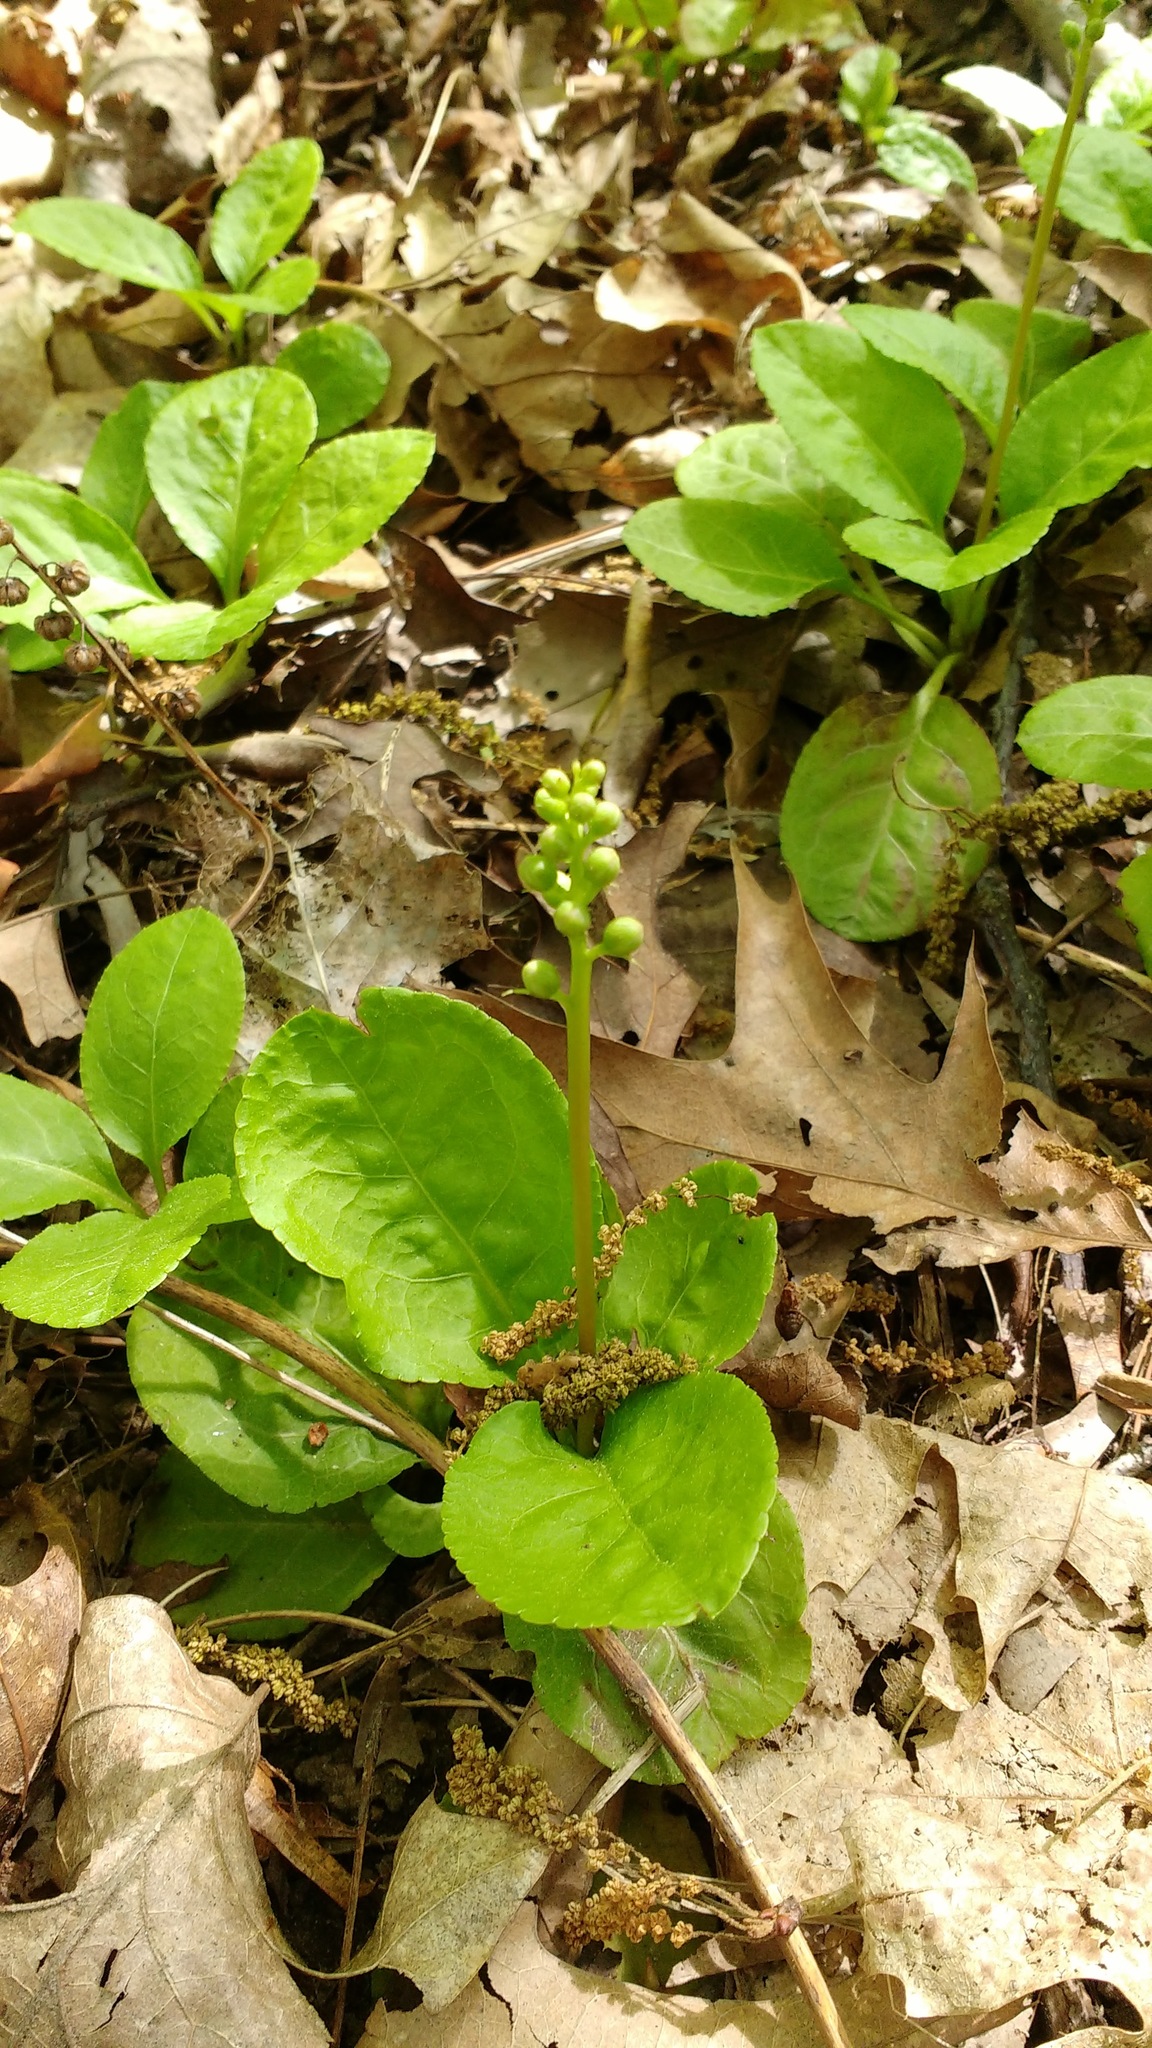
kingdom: Plantae
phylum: Tracheophyta
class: Magnoliopsida
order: Ericales
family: Ericaceae
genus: Pyrola
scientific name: Pyrola elliptica
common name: Shinleaf
